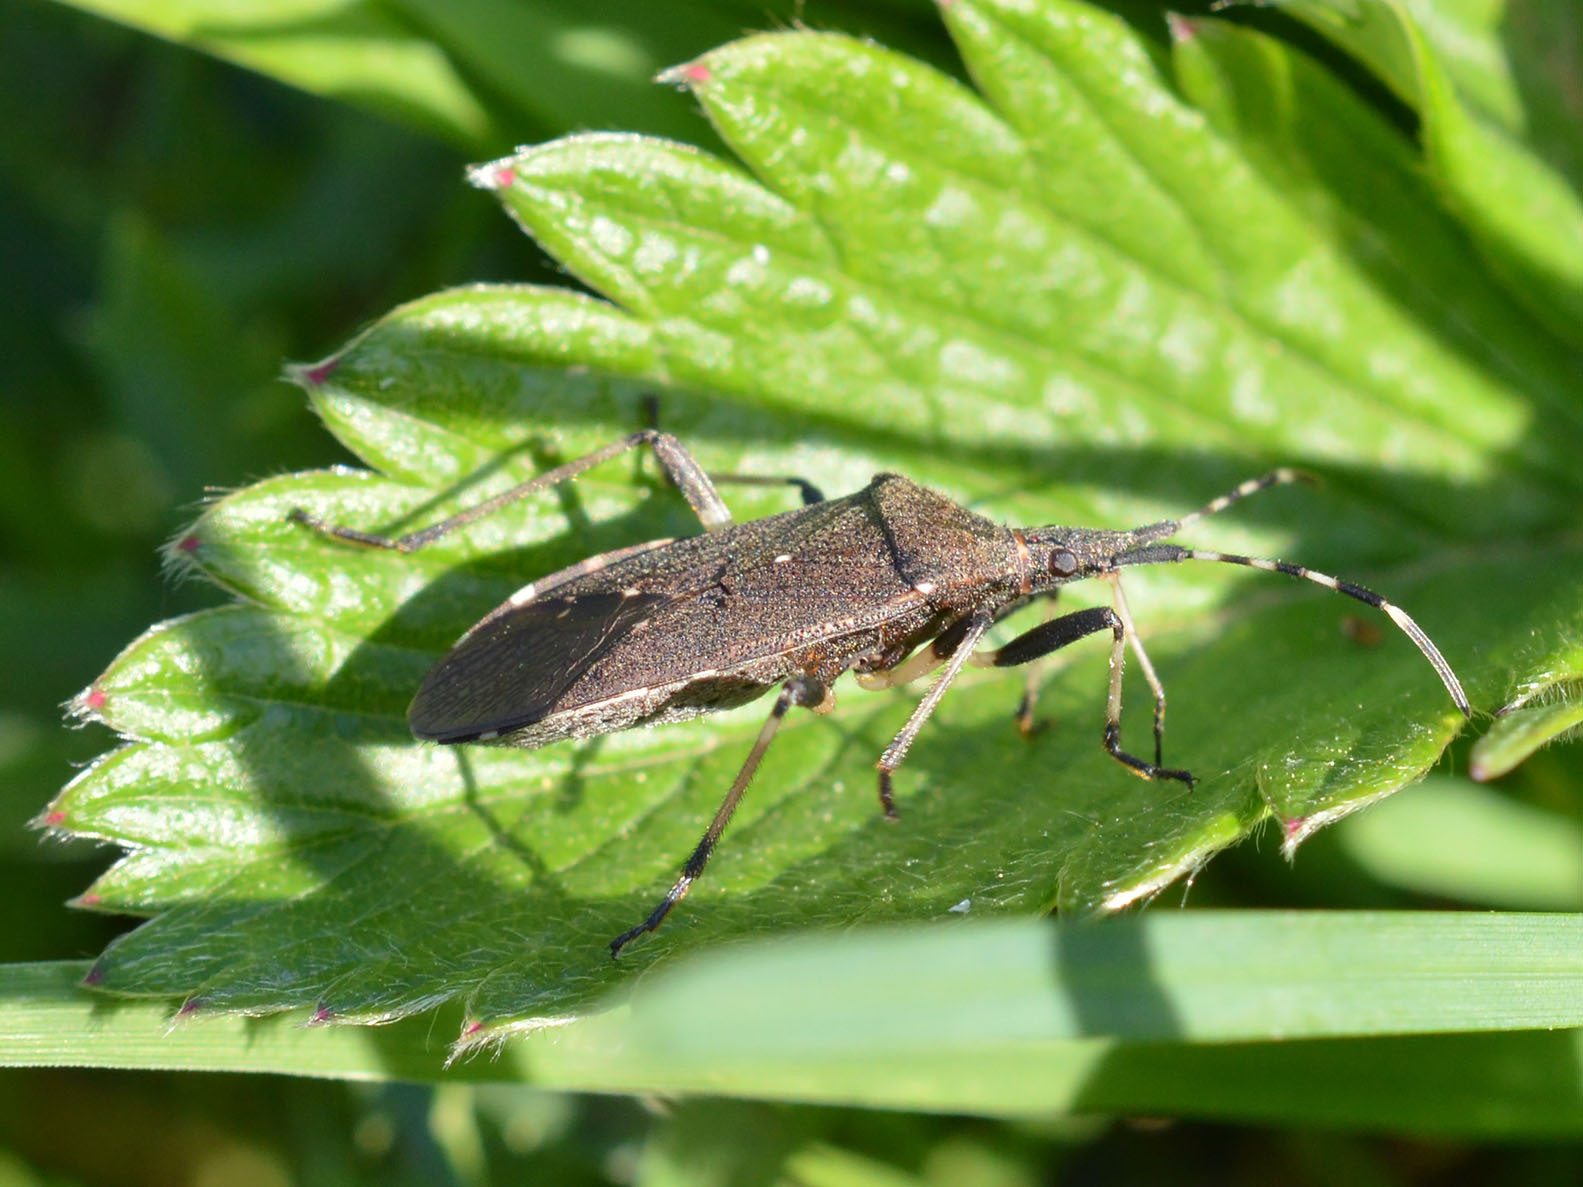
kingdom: Animalia
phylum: Arthropoda
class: Insecta
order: Hemiptera
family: Stenocephalidae
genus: Dicranocephalus
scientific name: Dicranocephalus agilis
